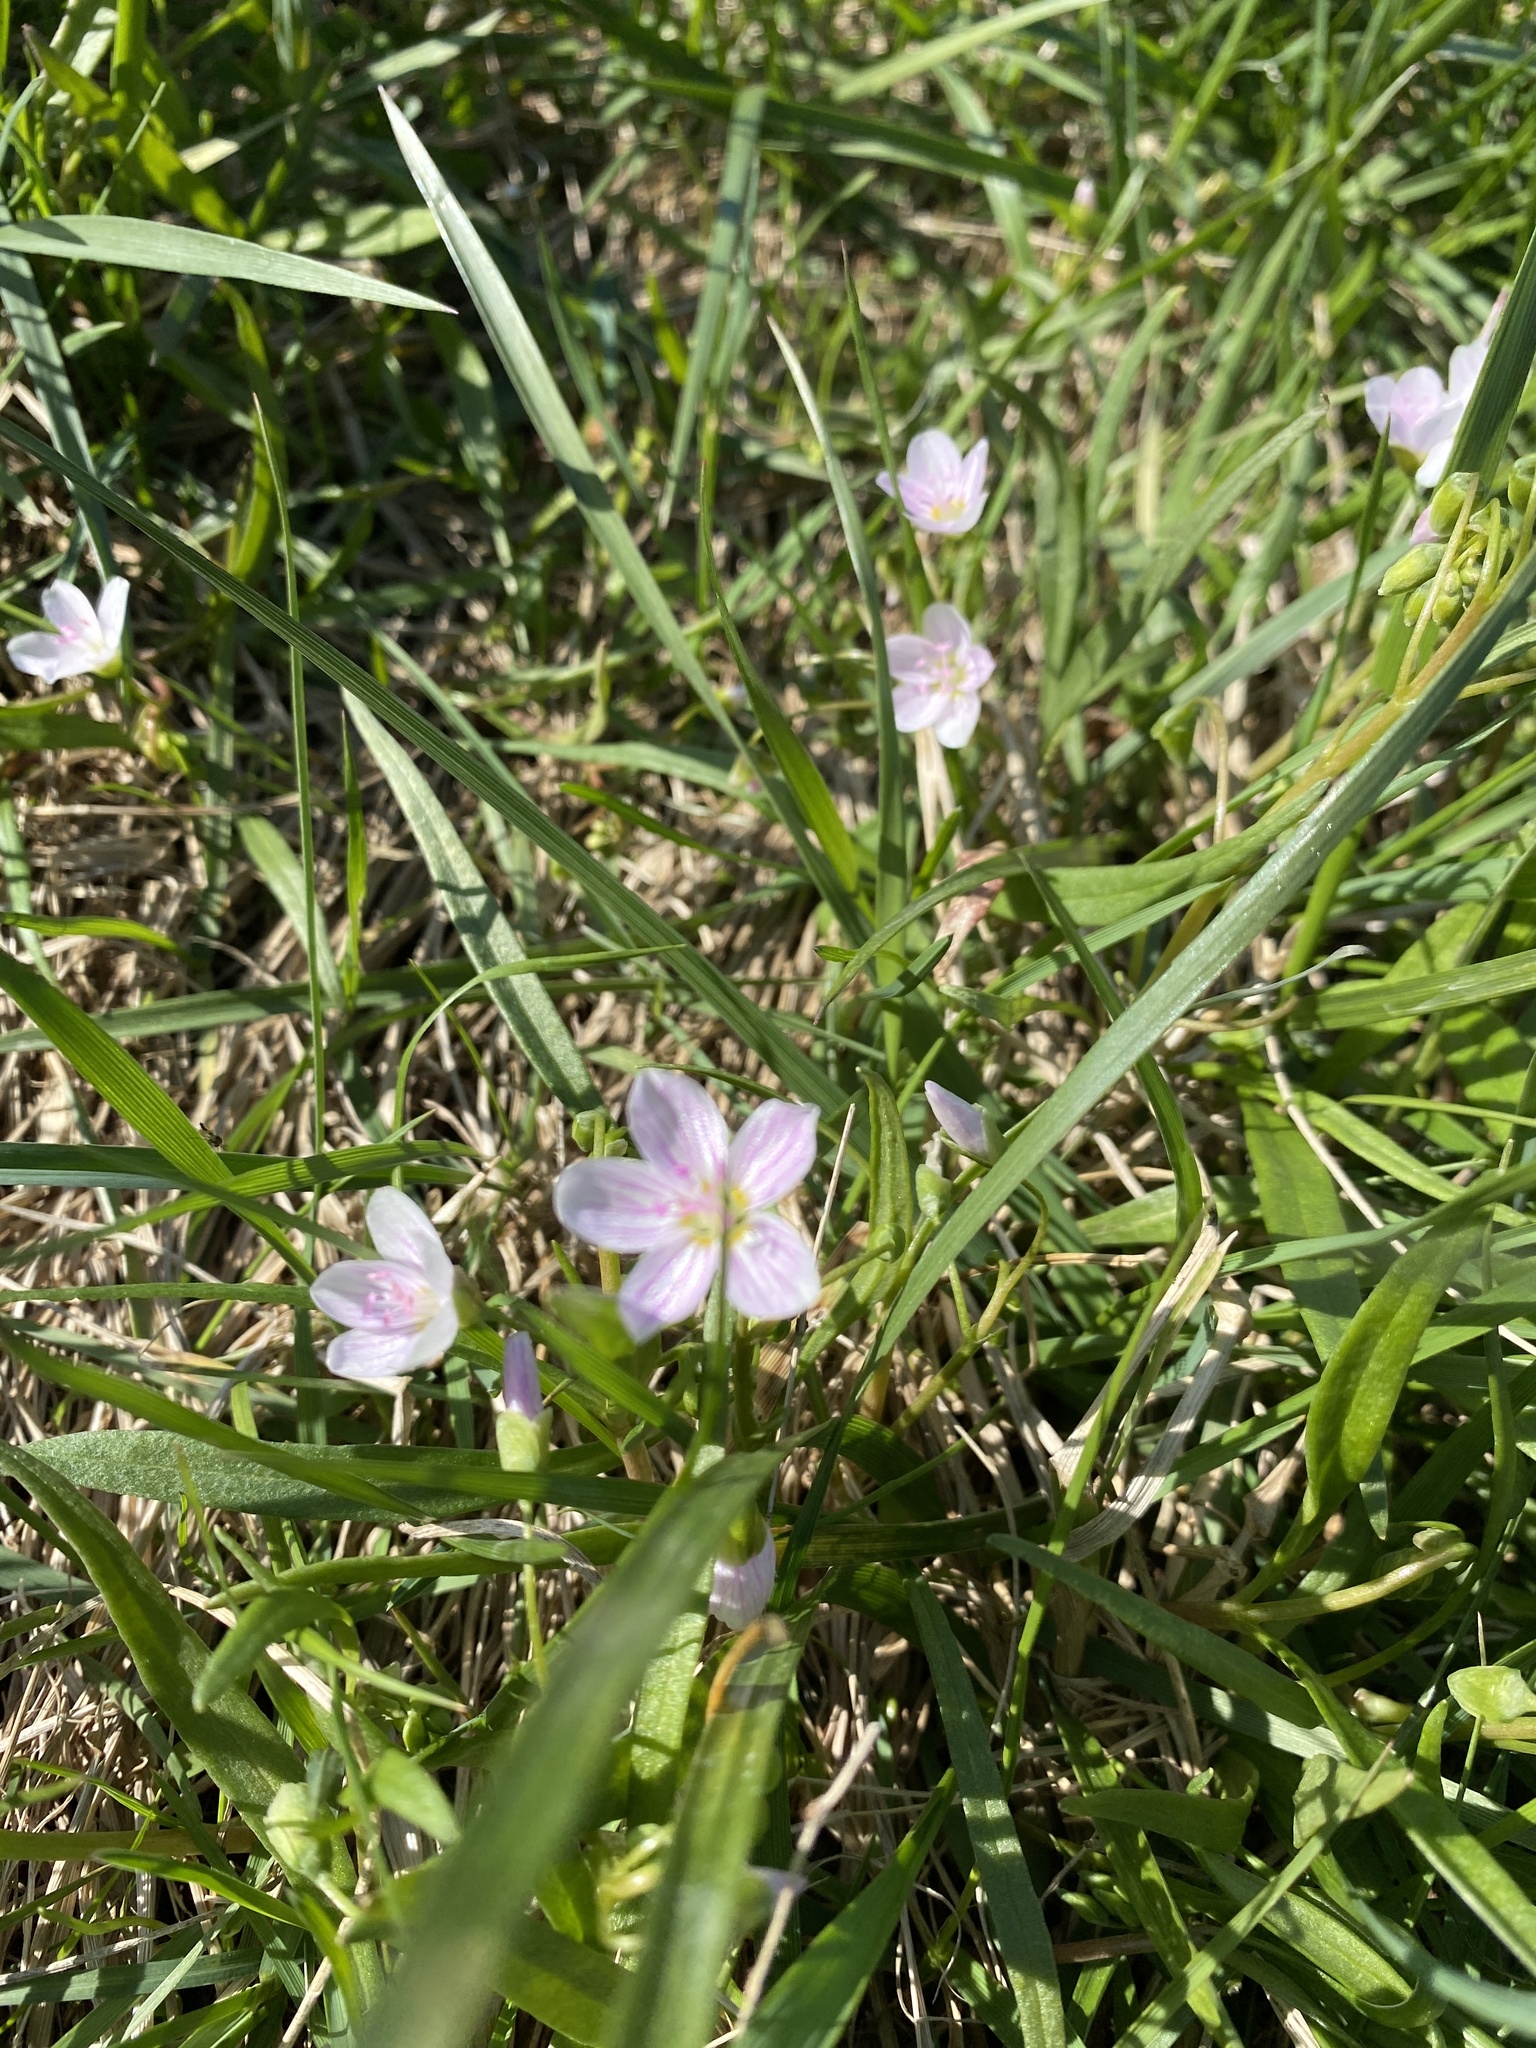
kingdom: Plantae
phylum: Tracheophyta
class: Magnoliopsida
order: Caryophyllales
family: Montiaceae
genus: Claytonia
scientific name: Claytonia virginica
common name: Virginia springbeauty
